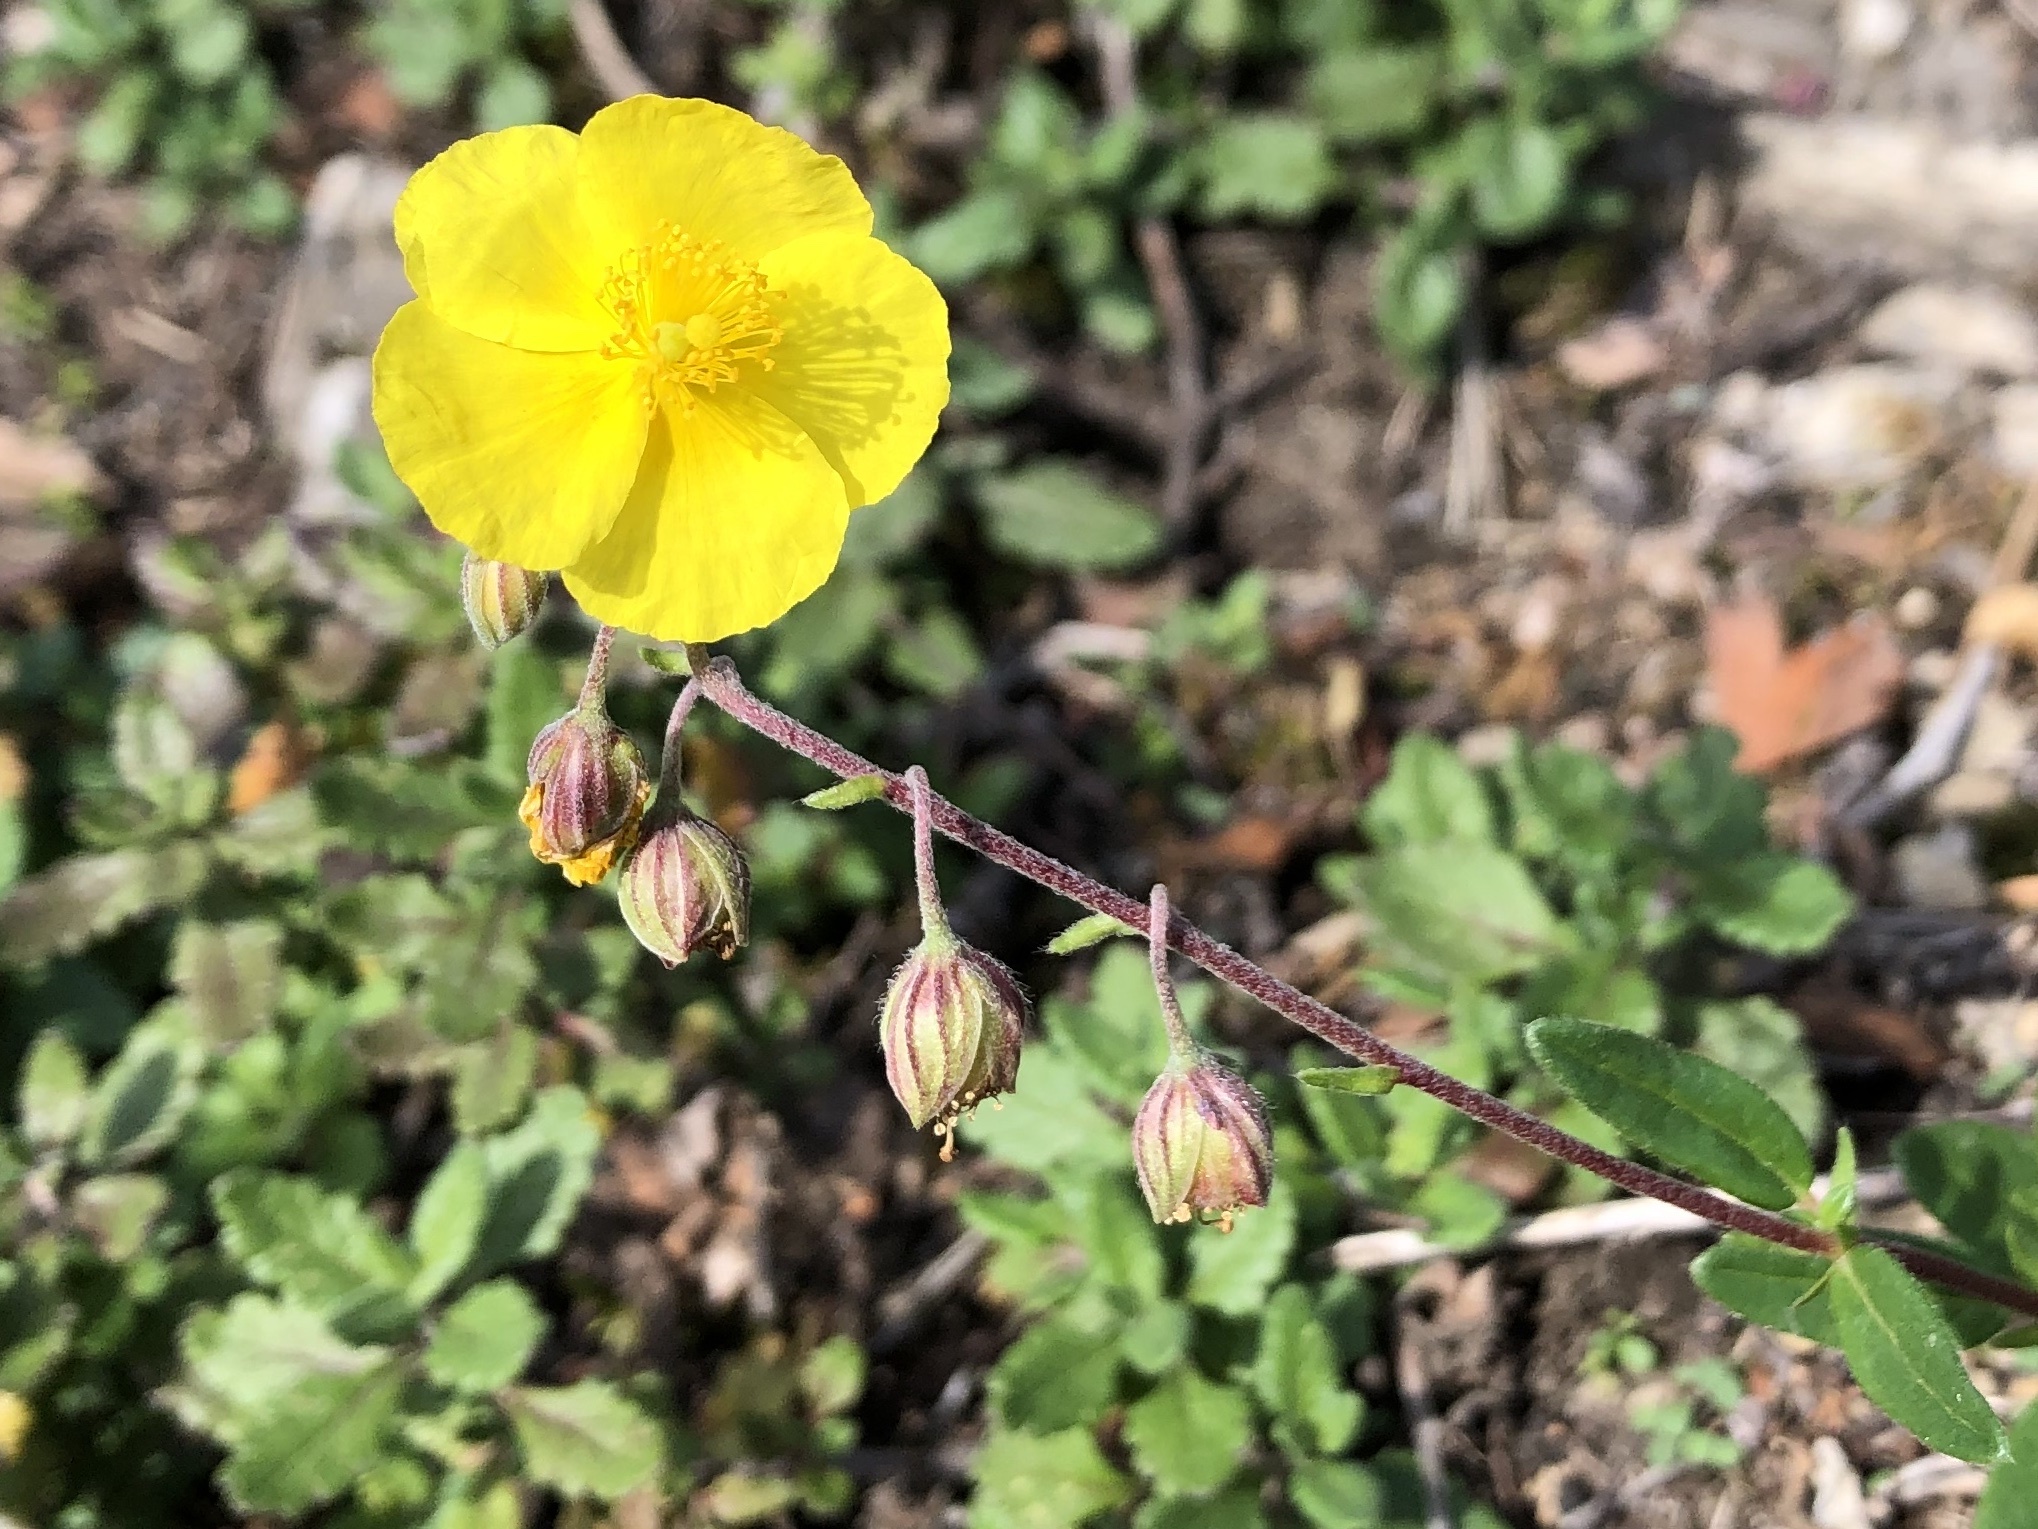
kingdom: Plantae
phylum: Tracheophyta
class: Magnoliopsida
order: Malvales
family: Cistaceae
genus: Helianthemum
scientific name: Helianthemum nummularium
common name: Common rock-rose
